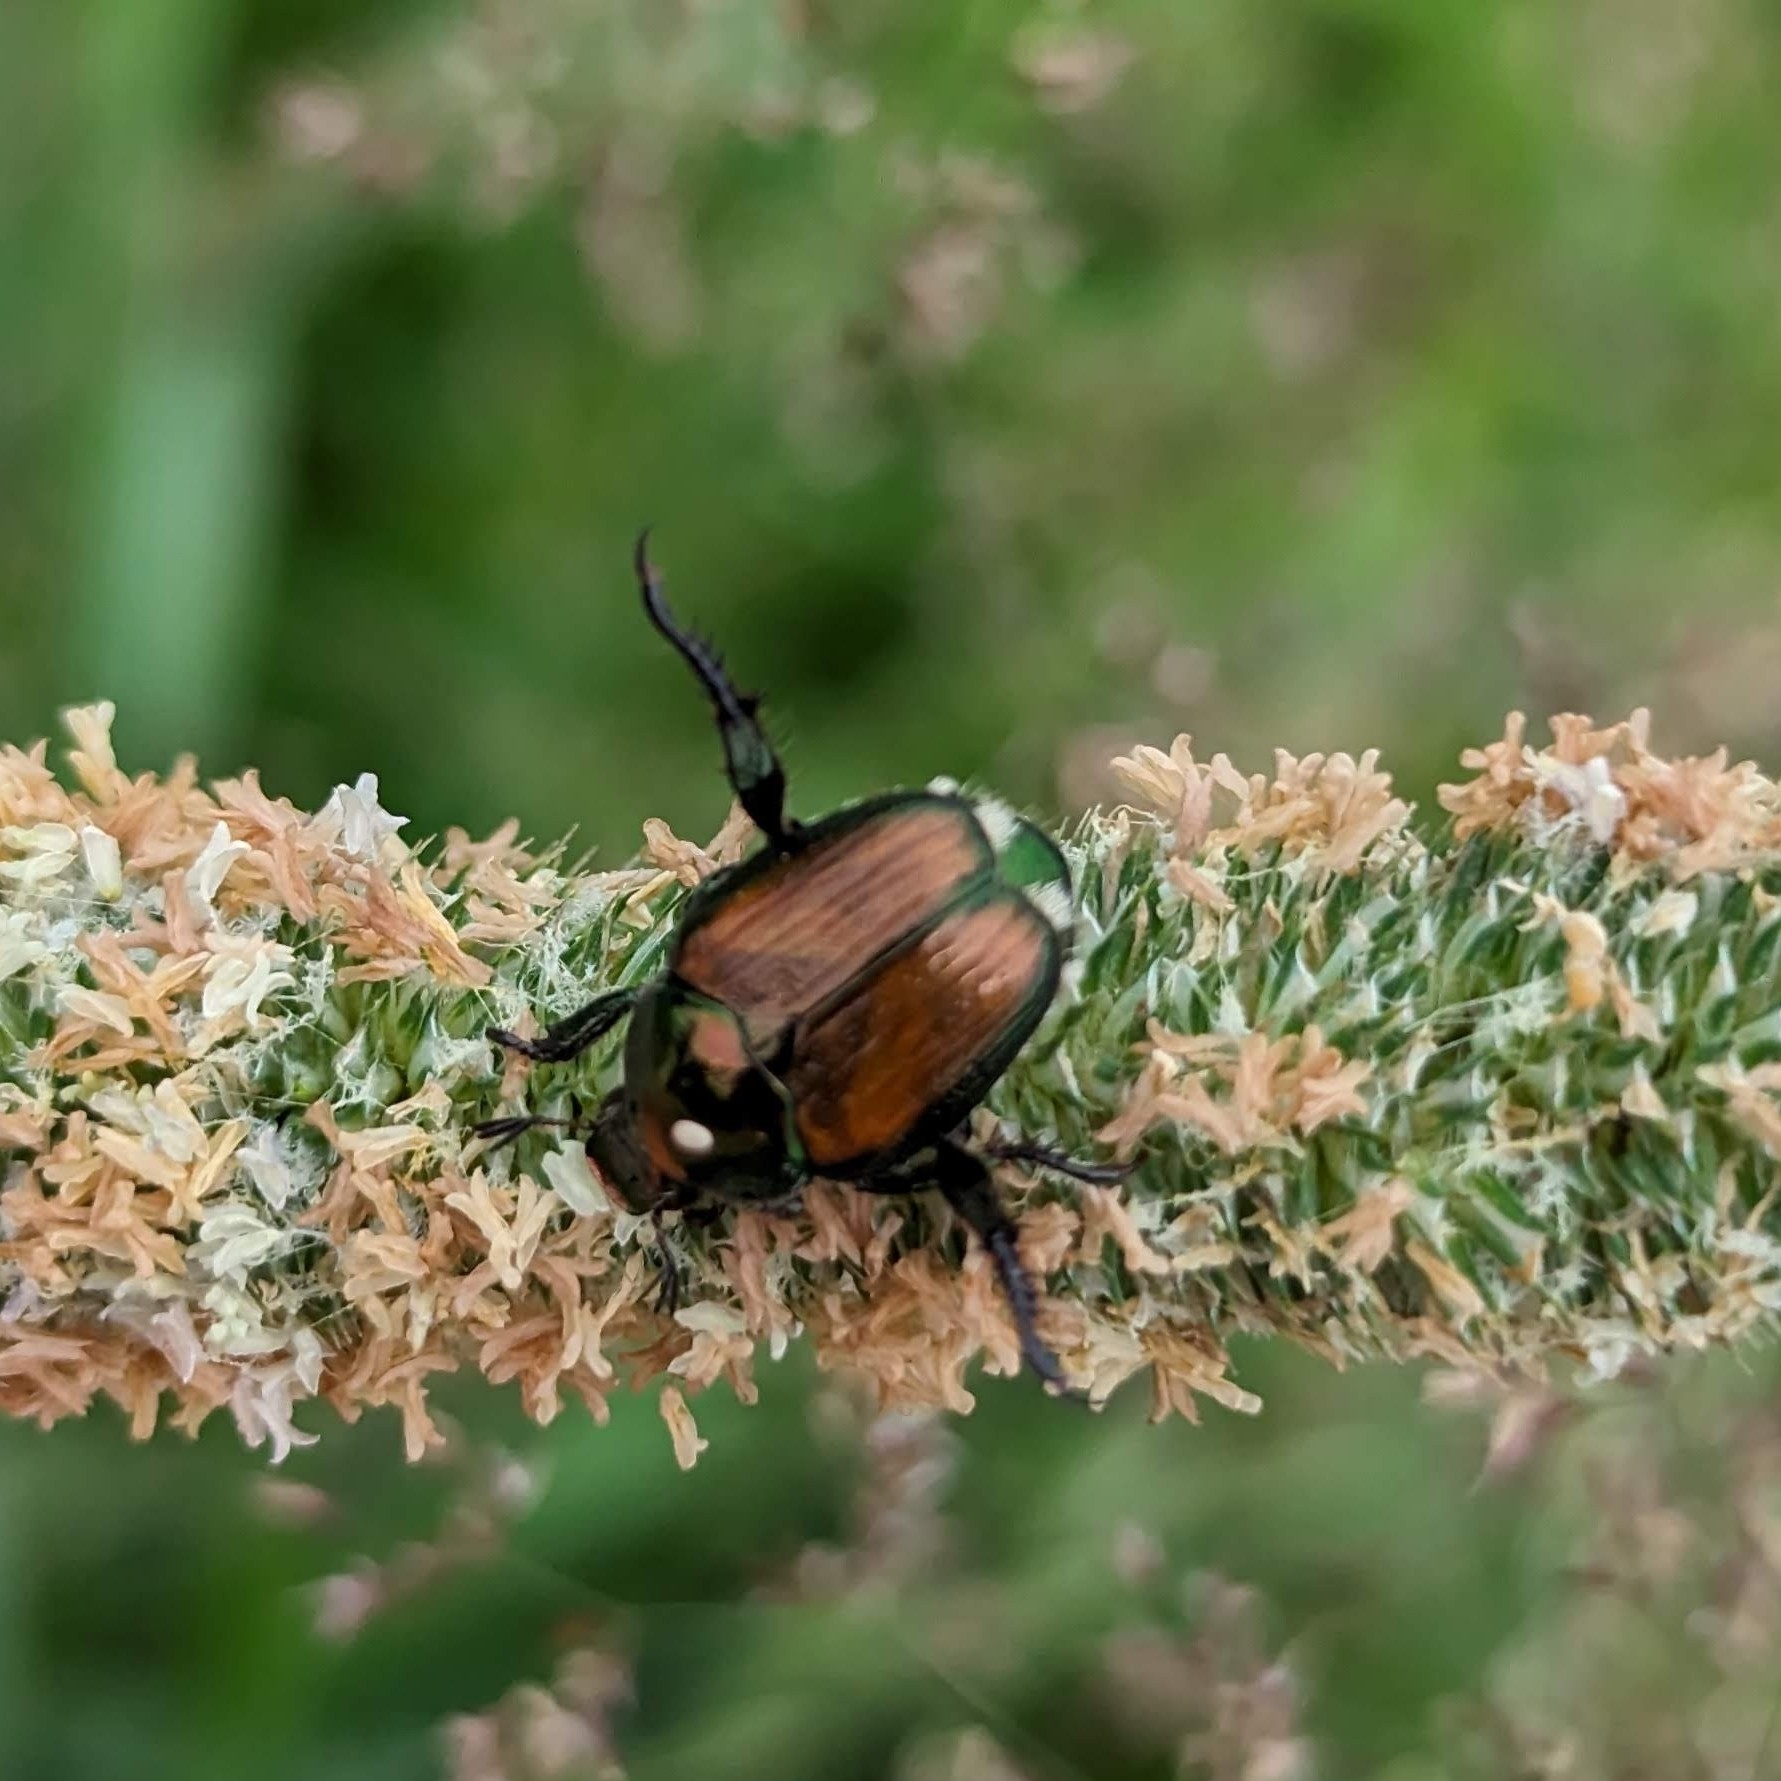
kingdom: Animalia
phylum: Arthropoda
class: Insecta
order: Coleoptera
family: Scarabaeidae
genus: Popillia
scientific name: Popillia japonica
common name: Japanese beetle
